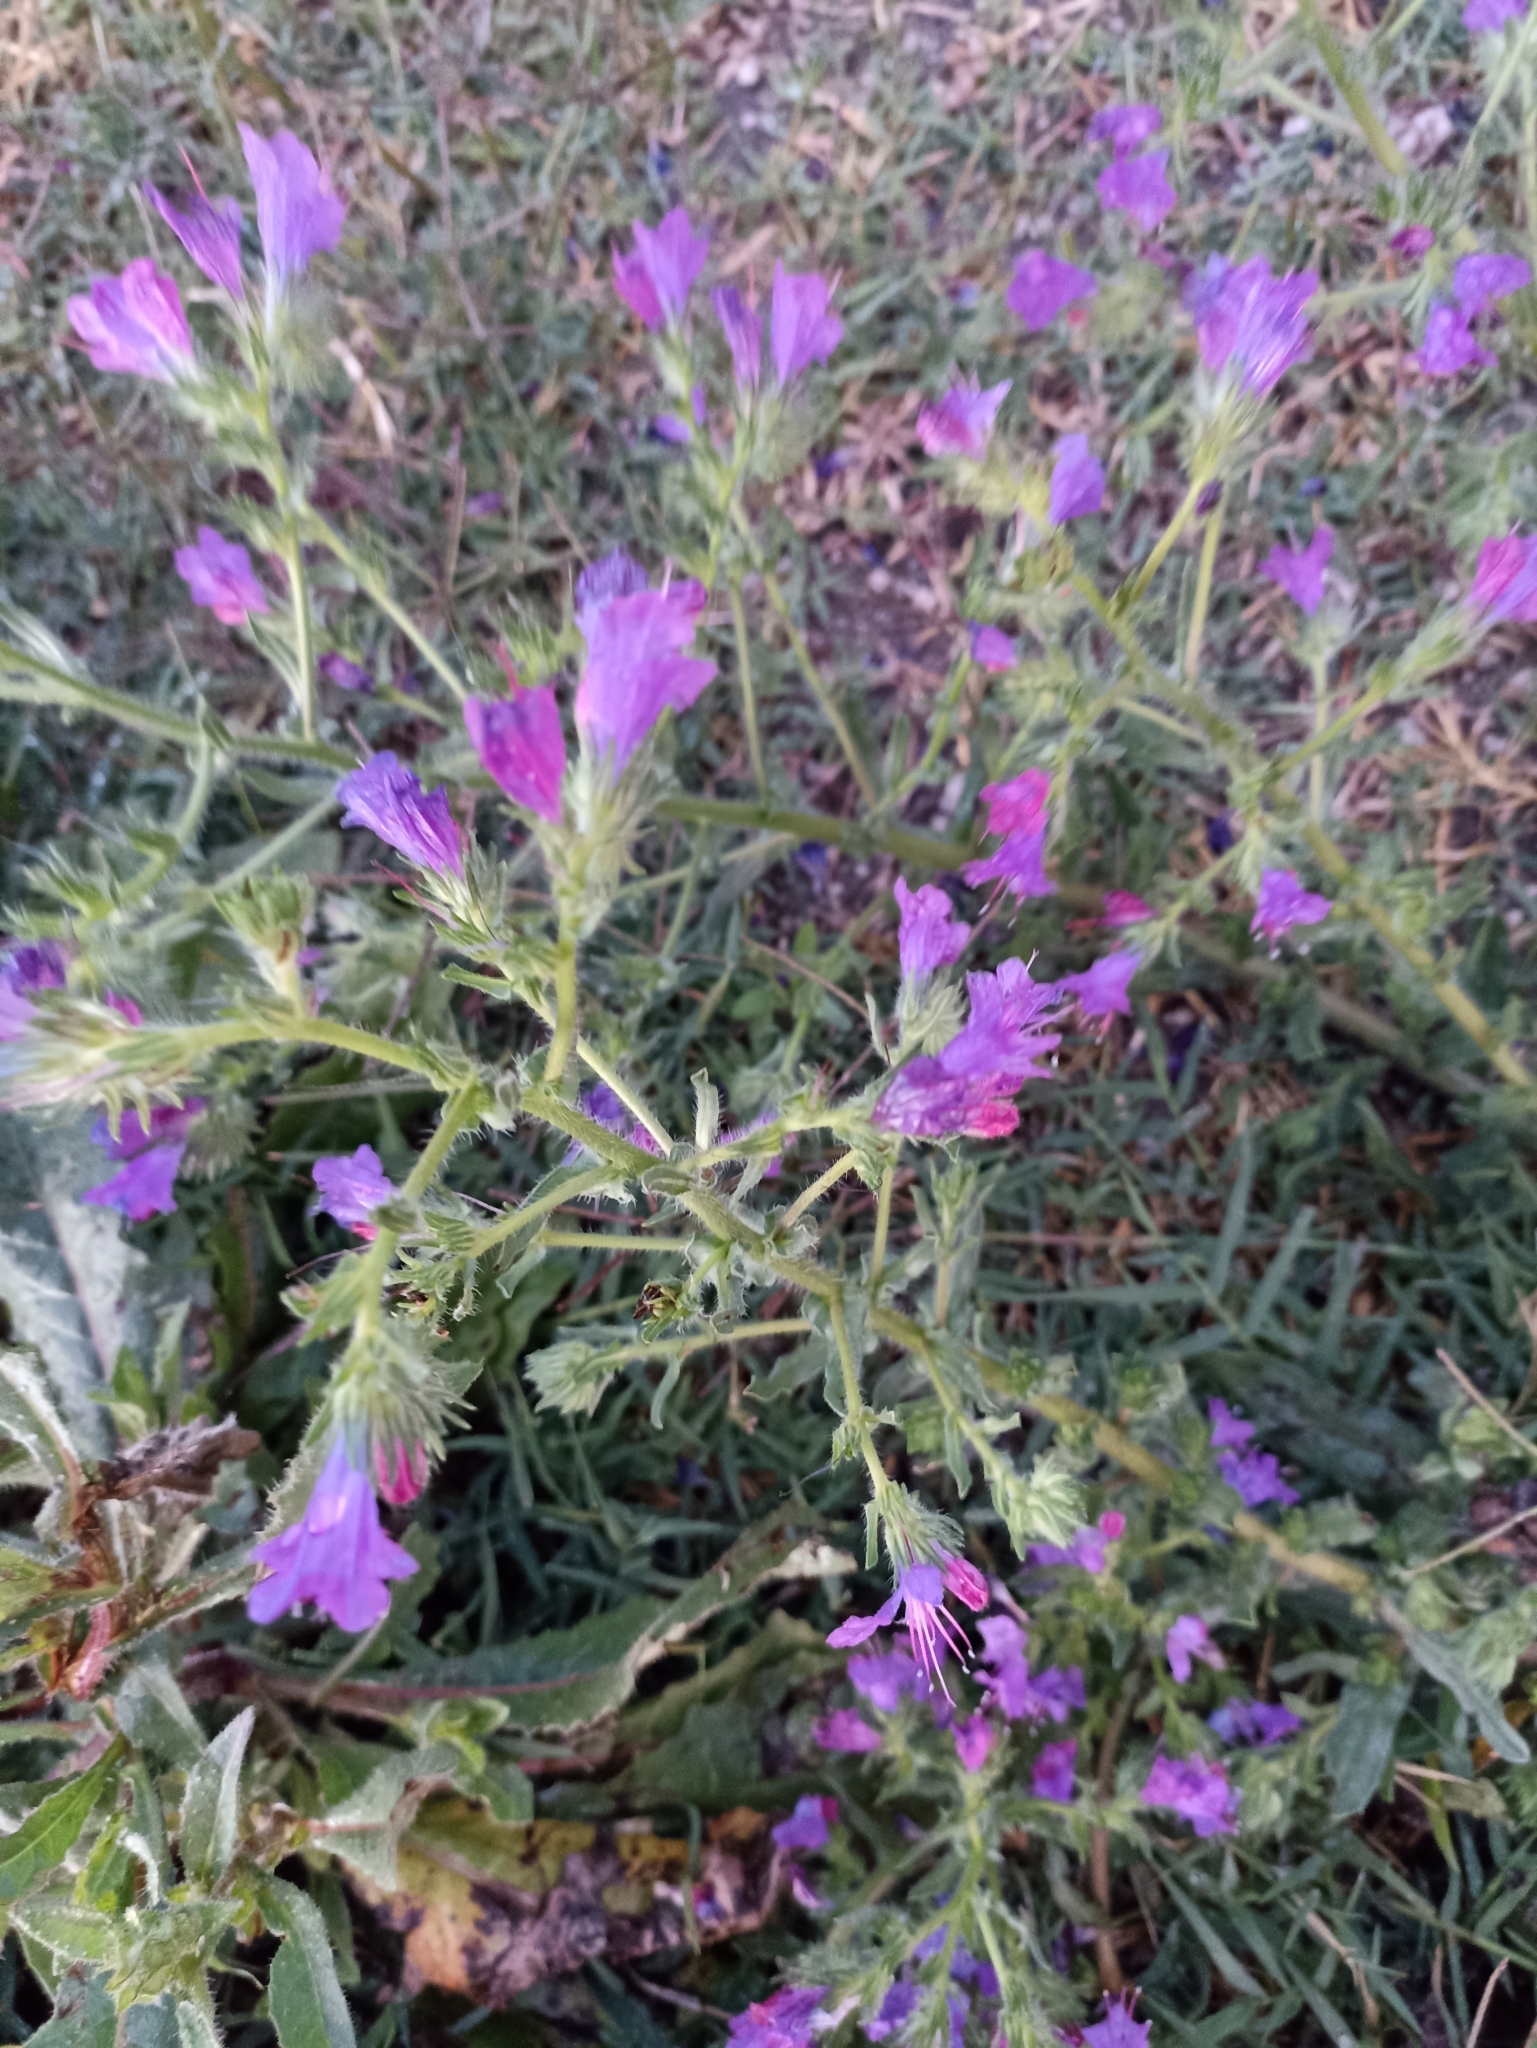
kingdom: Plantae
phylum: Tracheophyta
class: Magnoliopsida
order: Boraginales
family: Boraginaceae
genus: Echium
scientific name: Echium plantagineum
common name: Purple viper's-bugloss
